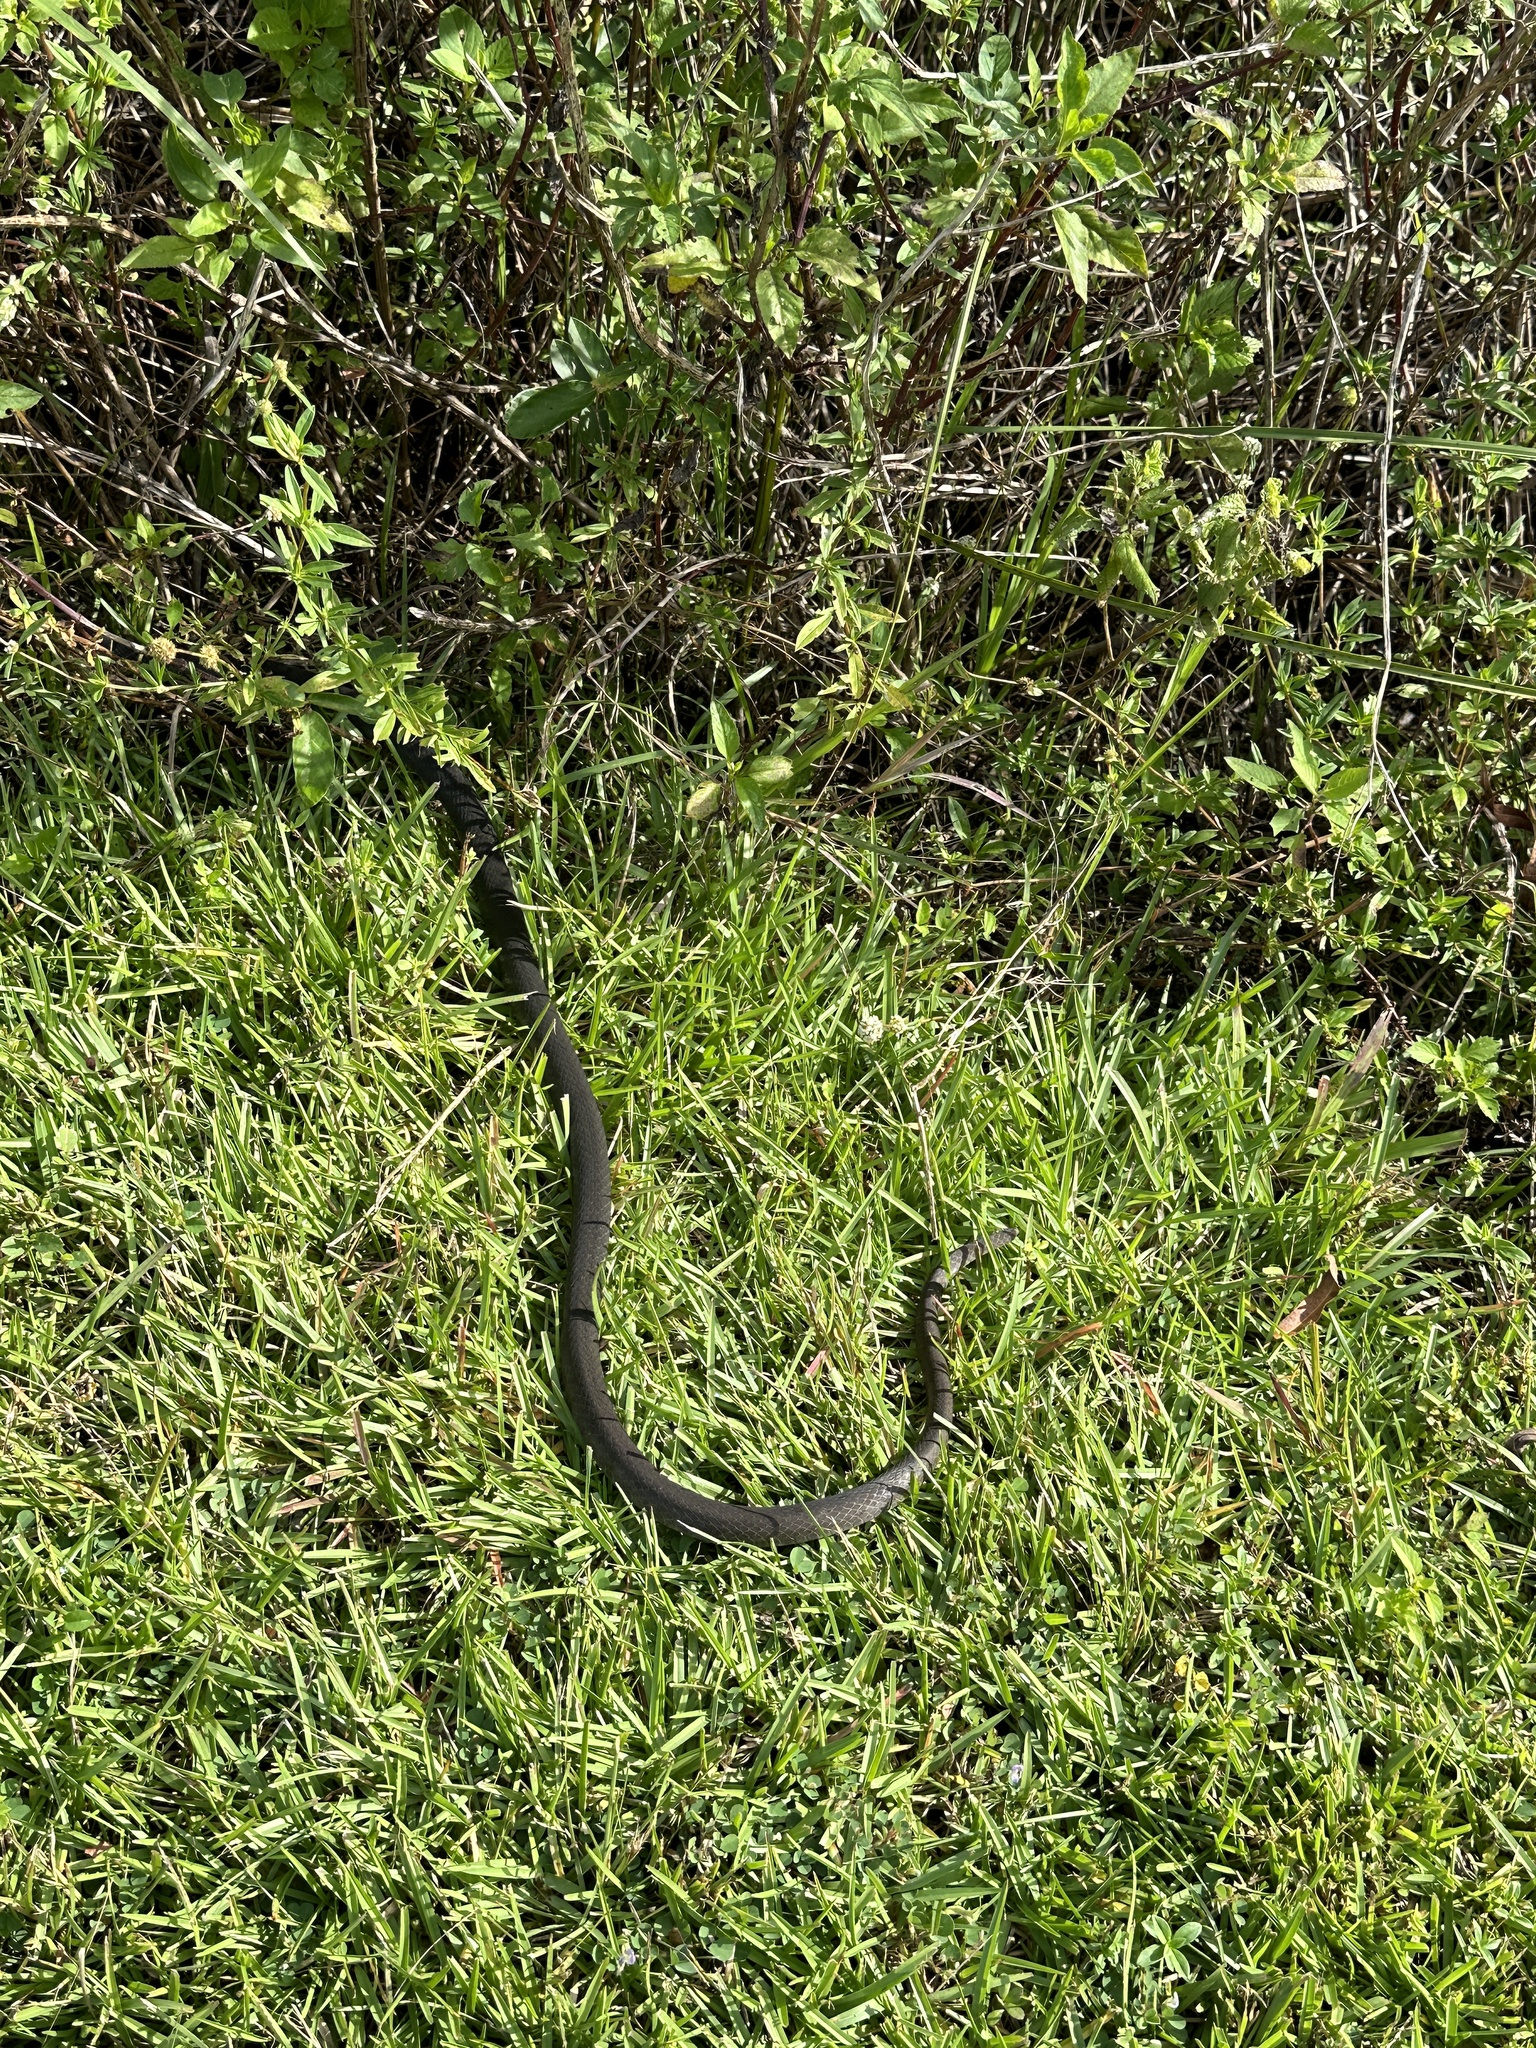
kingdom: Animalia
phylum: Chordata
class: Squamata
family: Colubridae
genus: Coluber
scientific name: Coluber constrictor
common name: Eastern racer
